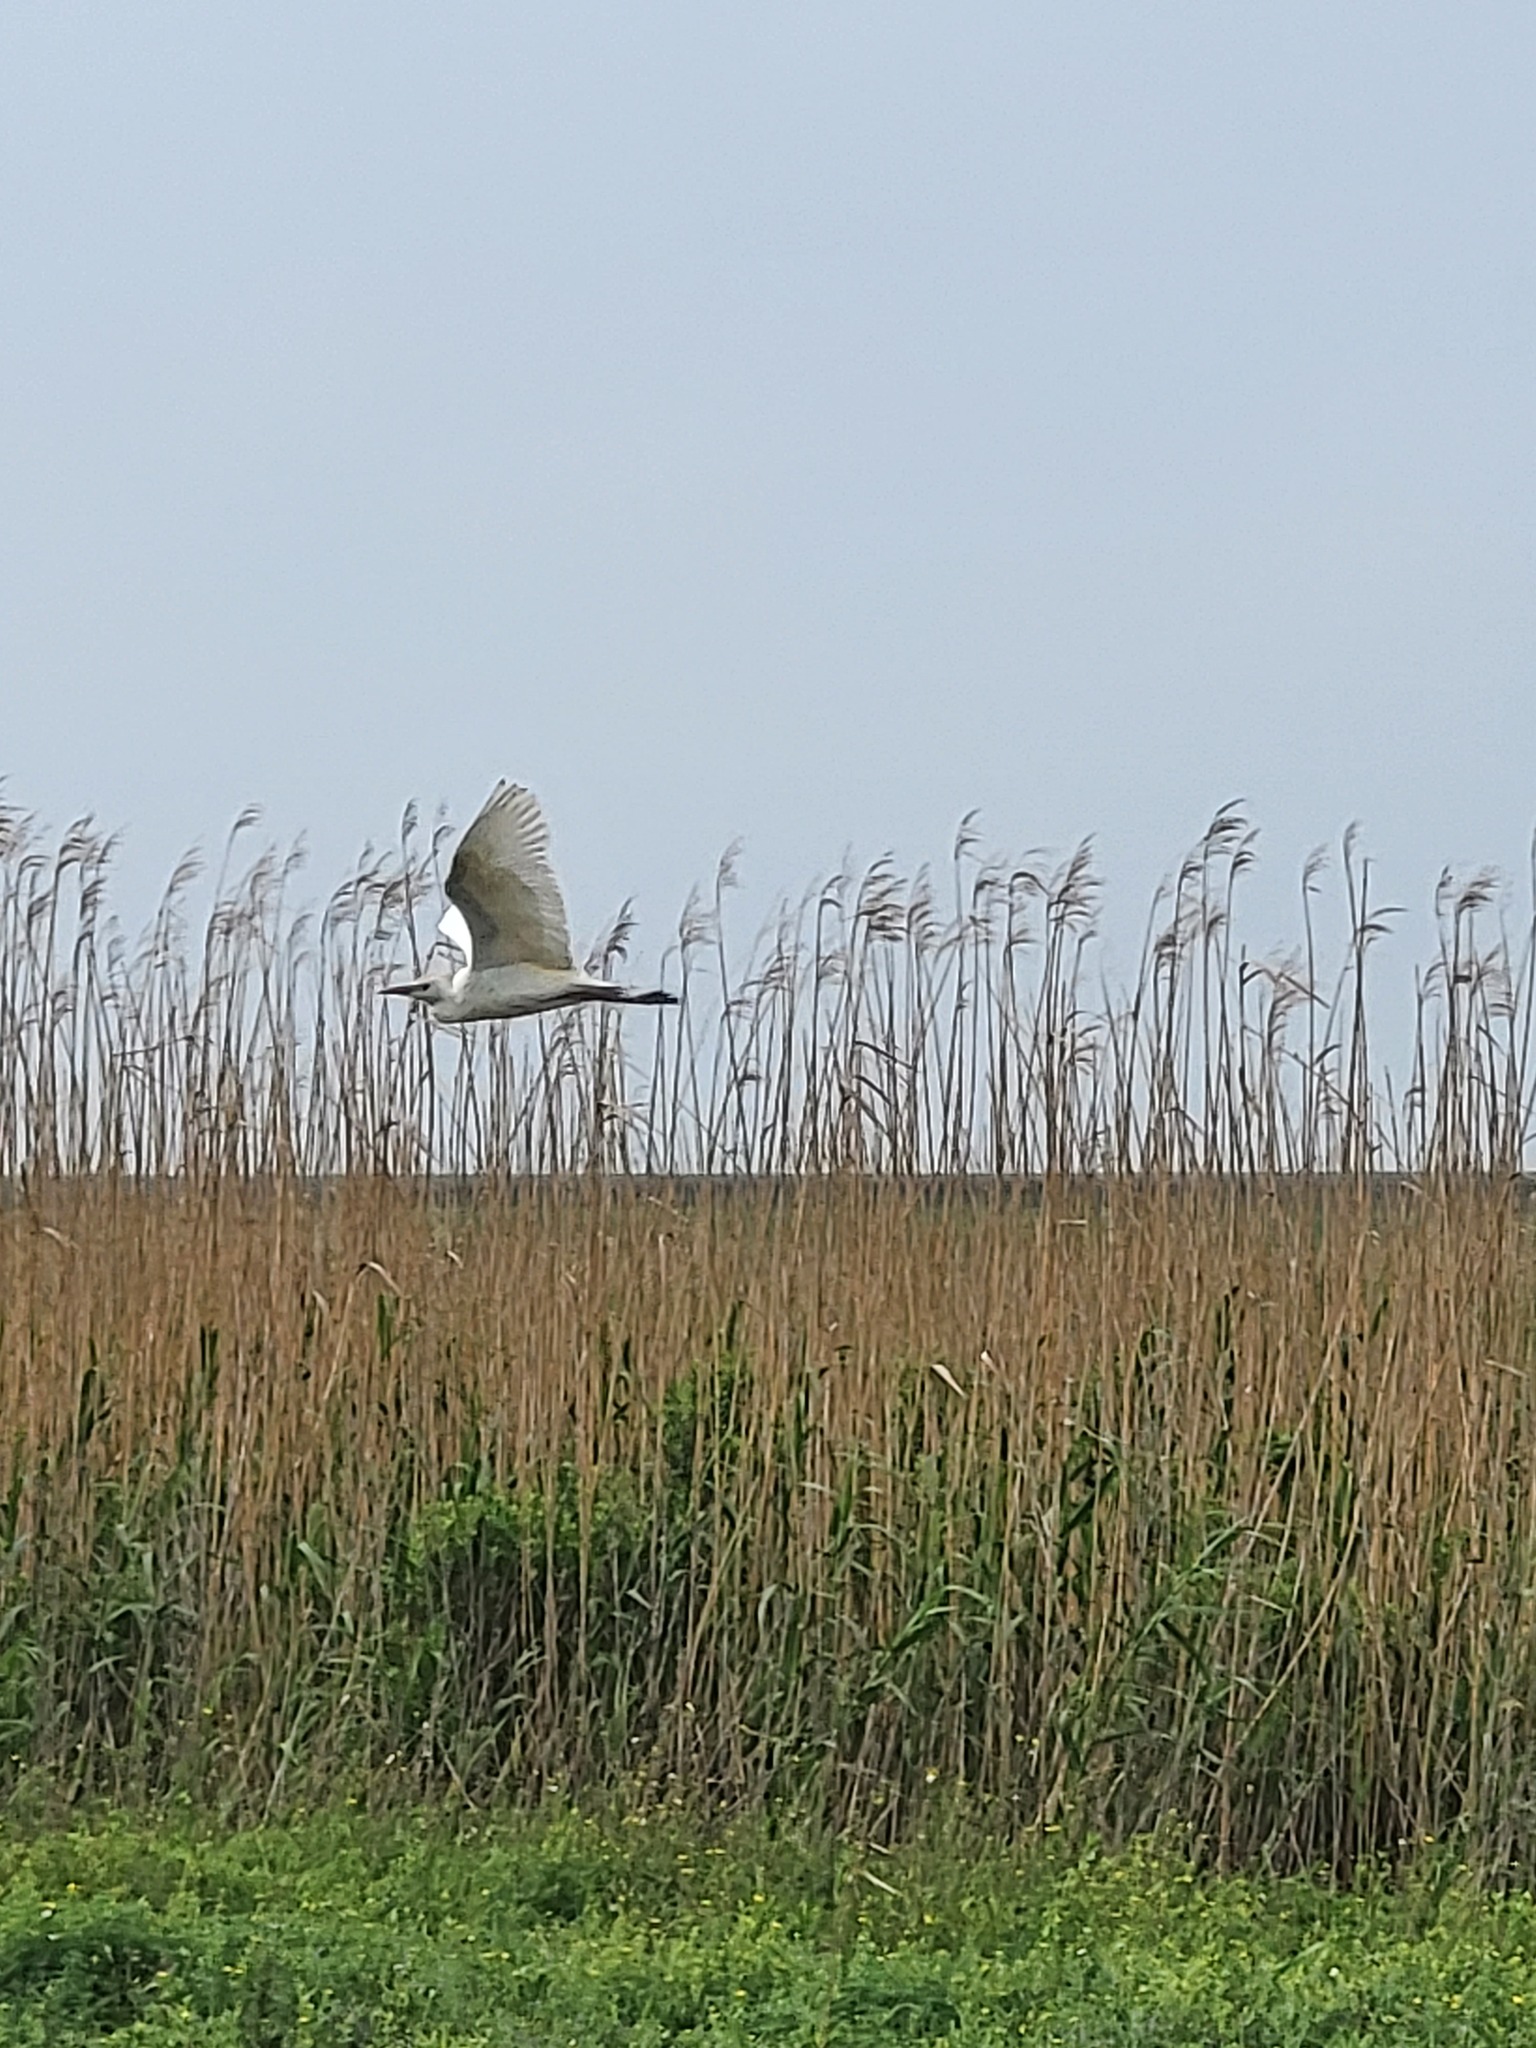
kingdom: Animalia
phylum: Chordata
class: Aves
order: Pelecaniformes
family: Ardeidae
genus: Ardea
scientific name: Ardea alba
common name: Great egret
